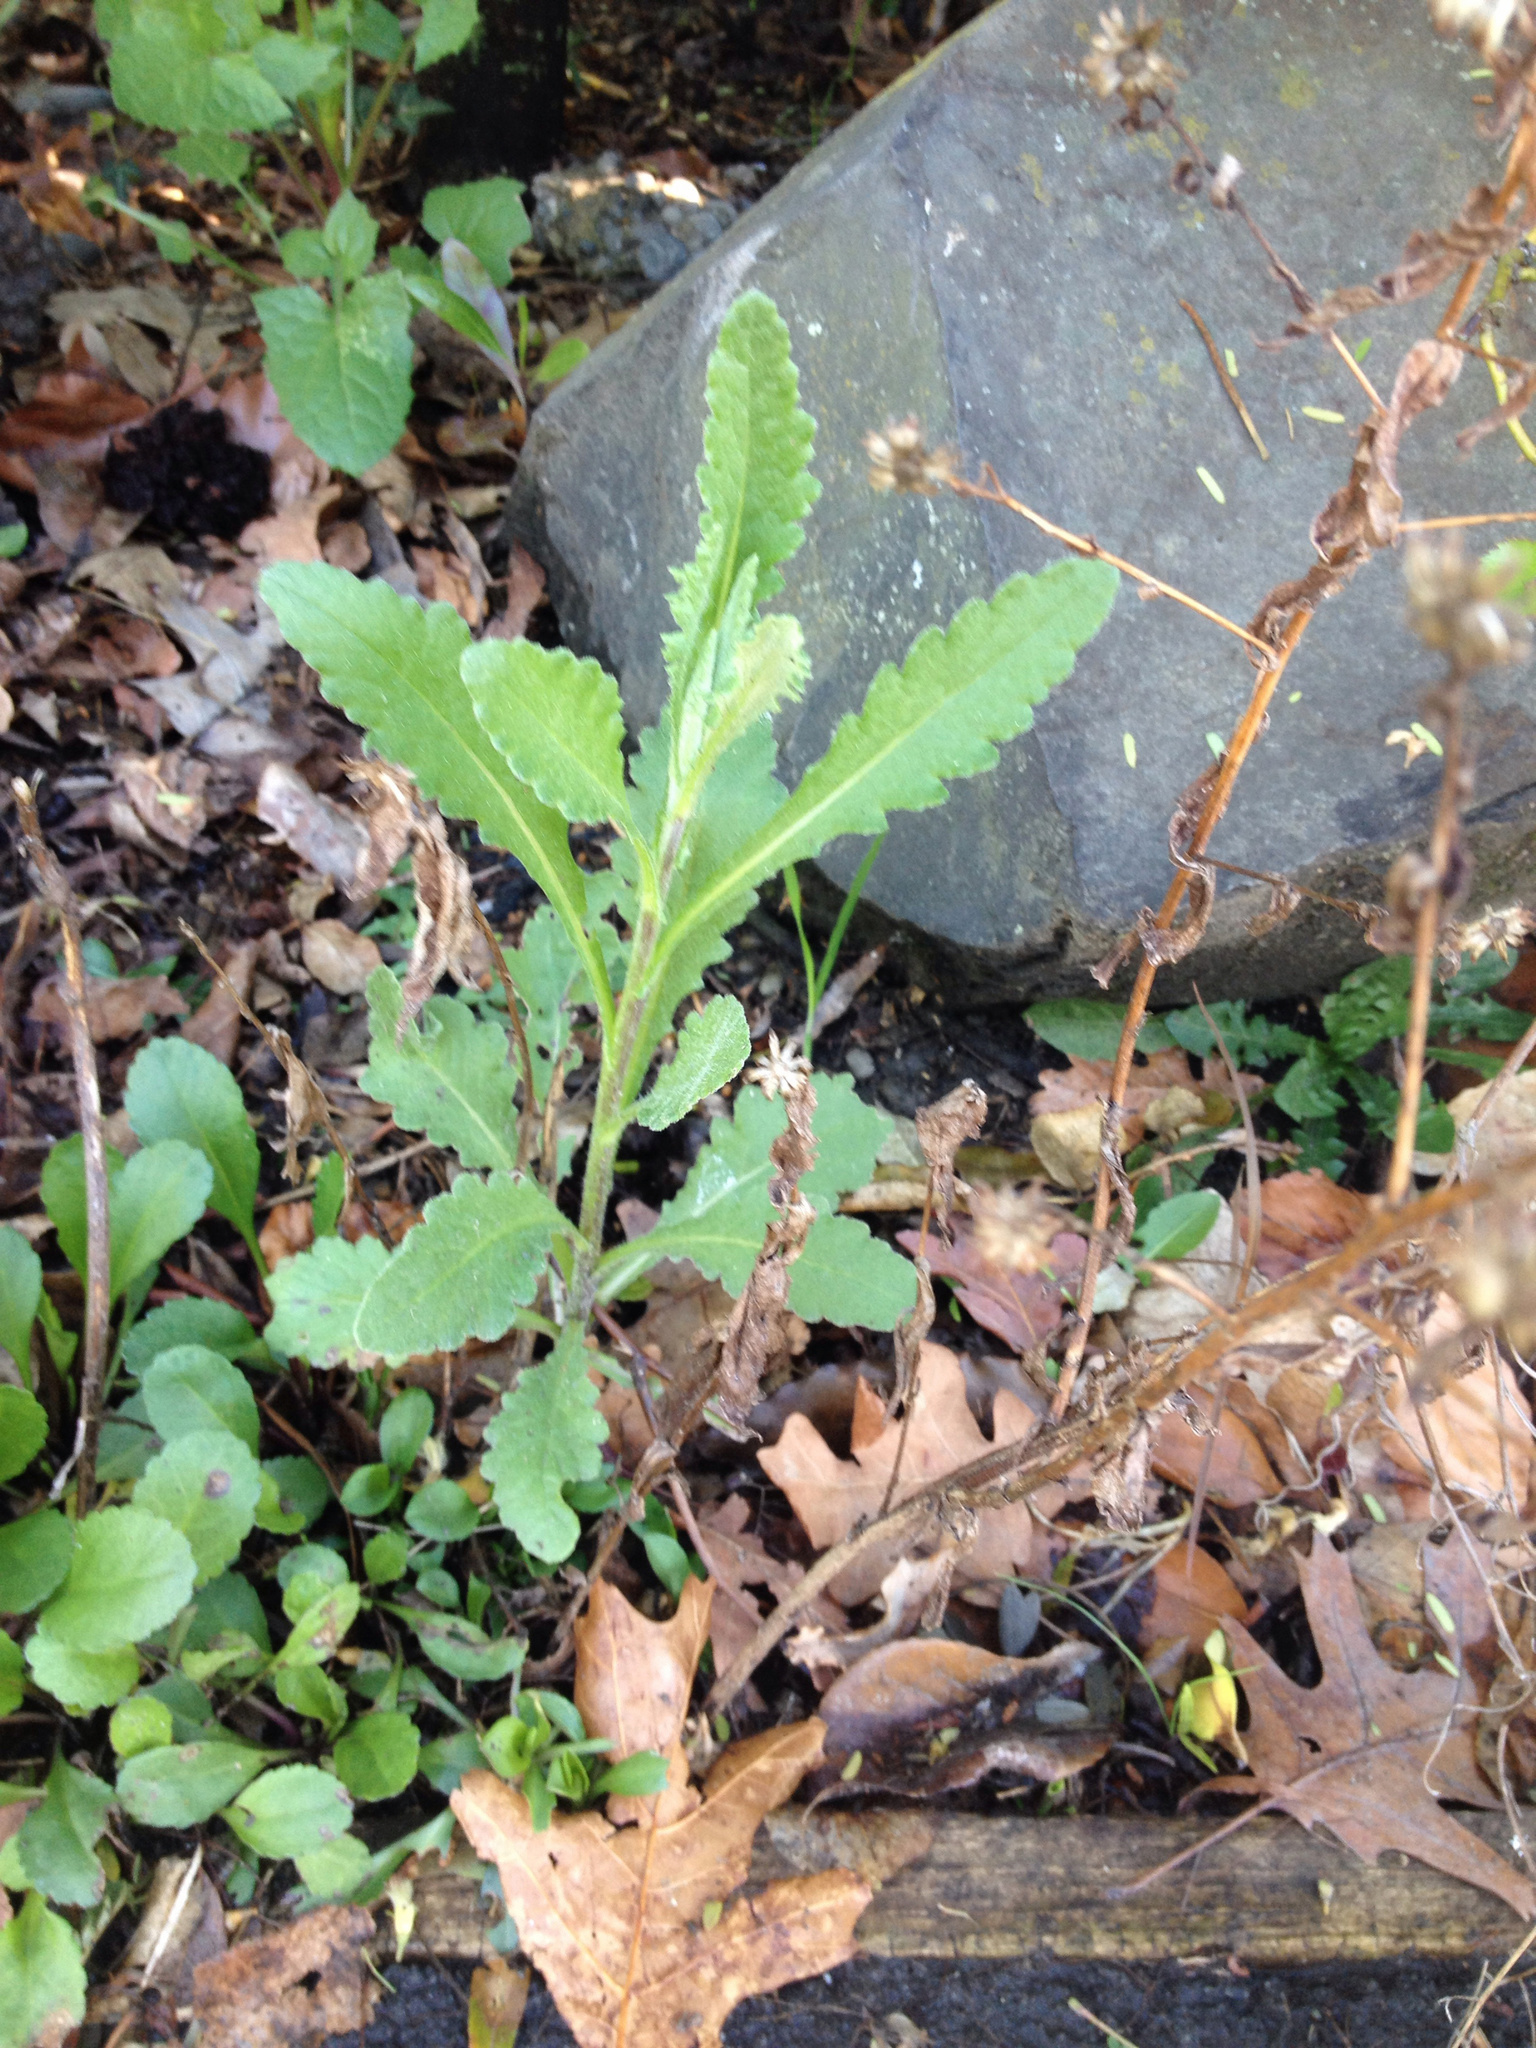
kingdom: Plantae
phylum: Tracheophyta
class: Magnoliopsida
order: Asterales
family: Asteraceae
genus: Senecio
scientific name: Senecio glomeratus
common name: Cutleaf burnweed
